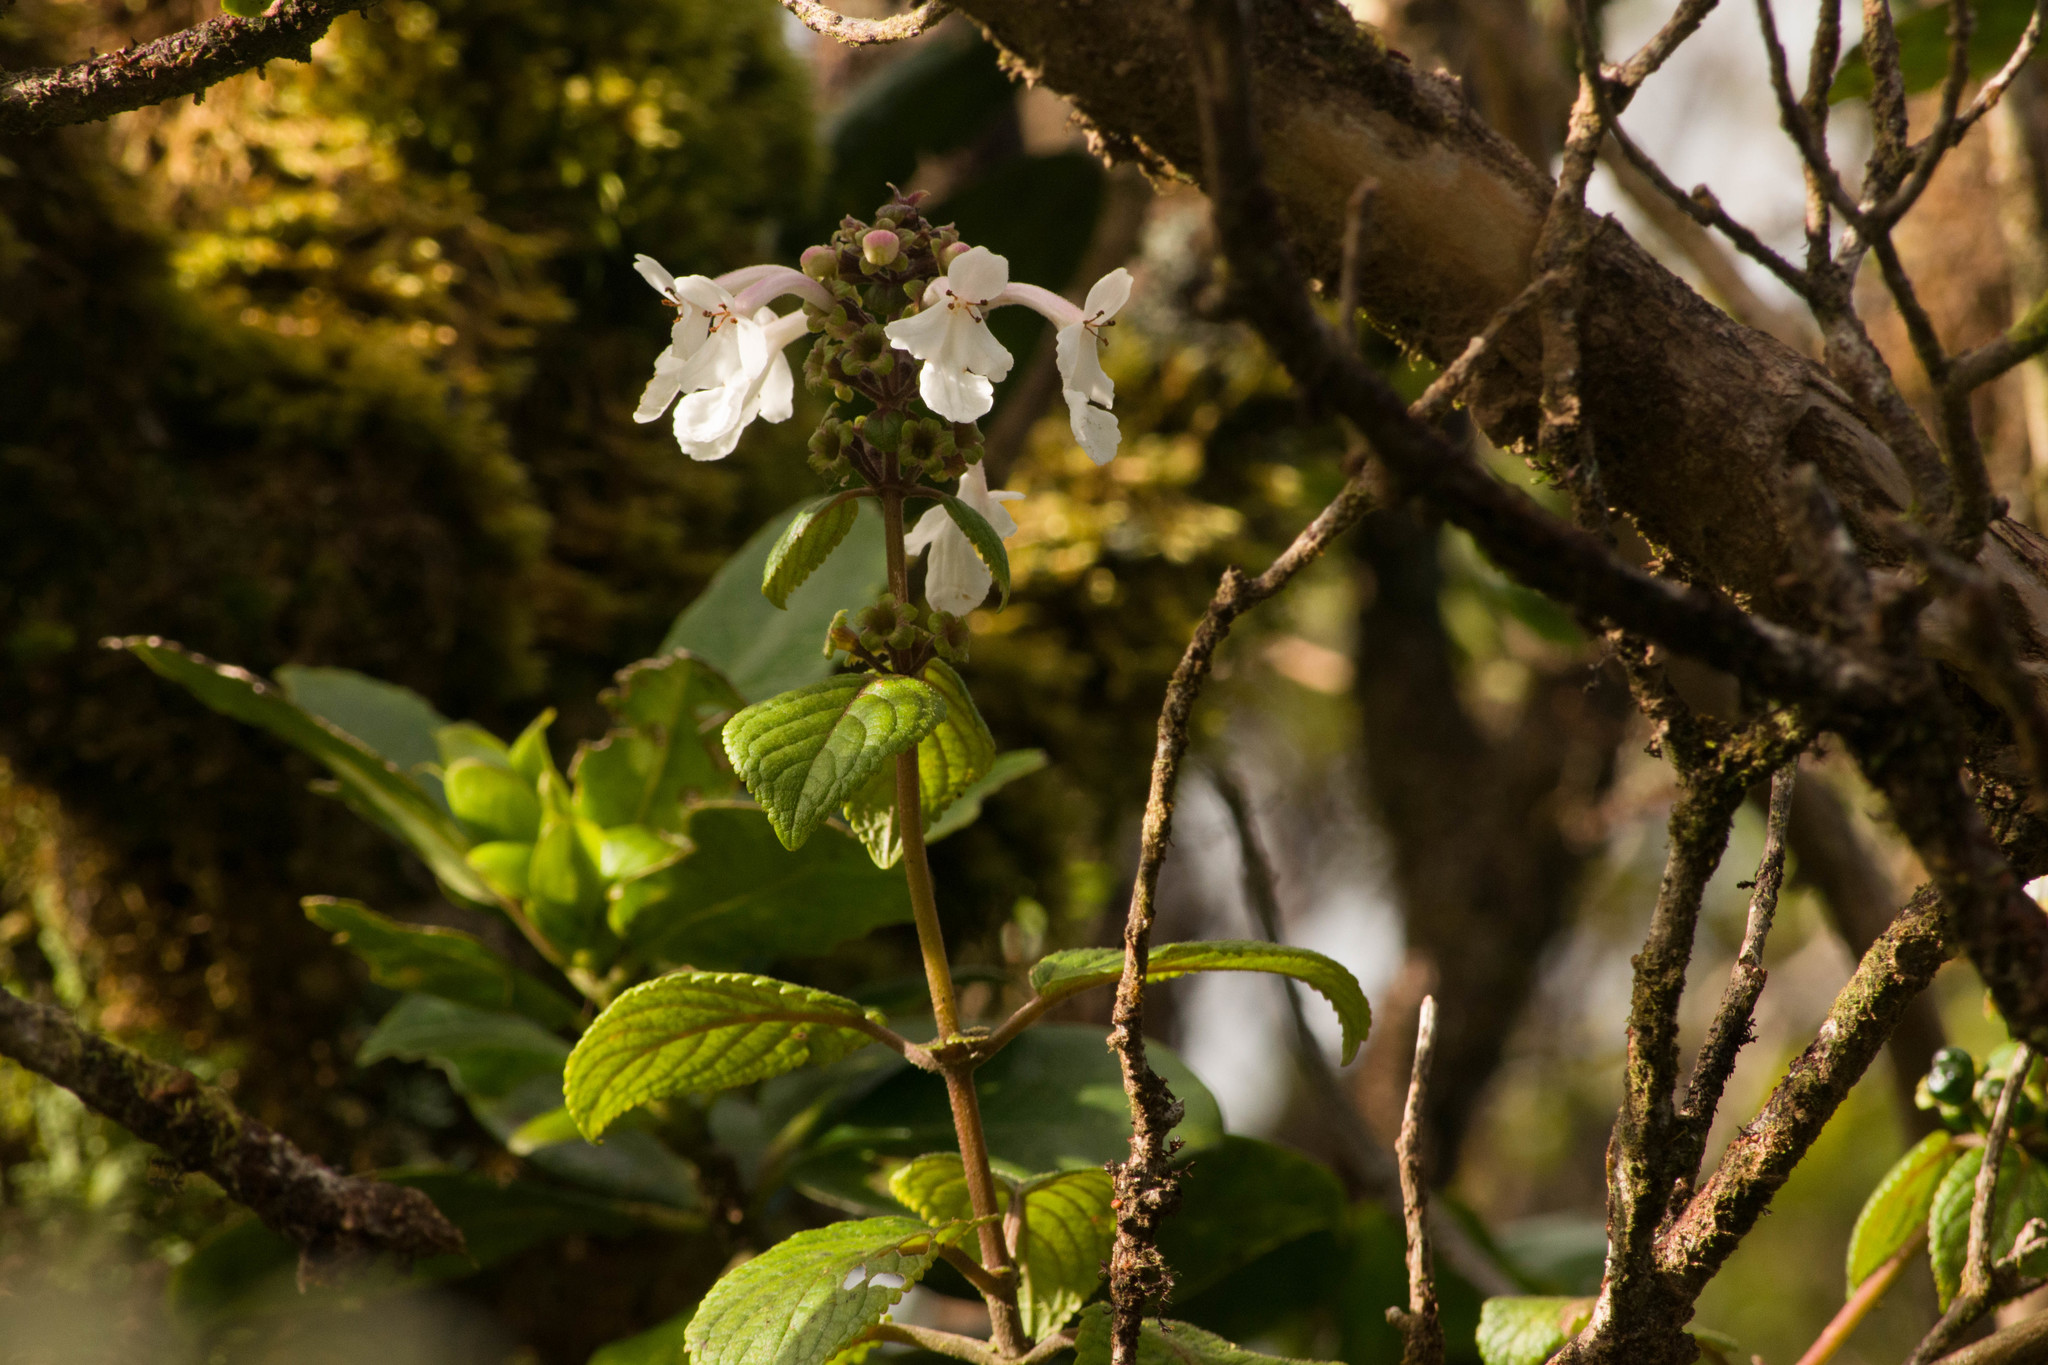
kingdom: Plantae
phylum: Tracheophyta
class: Magnoliopsida
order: Lamiales
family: Lamiaceae
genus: Phyllostegia
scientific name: Phyllostegia grandiflora
